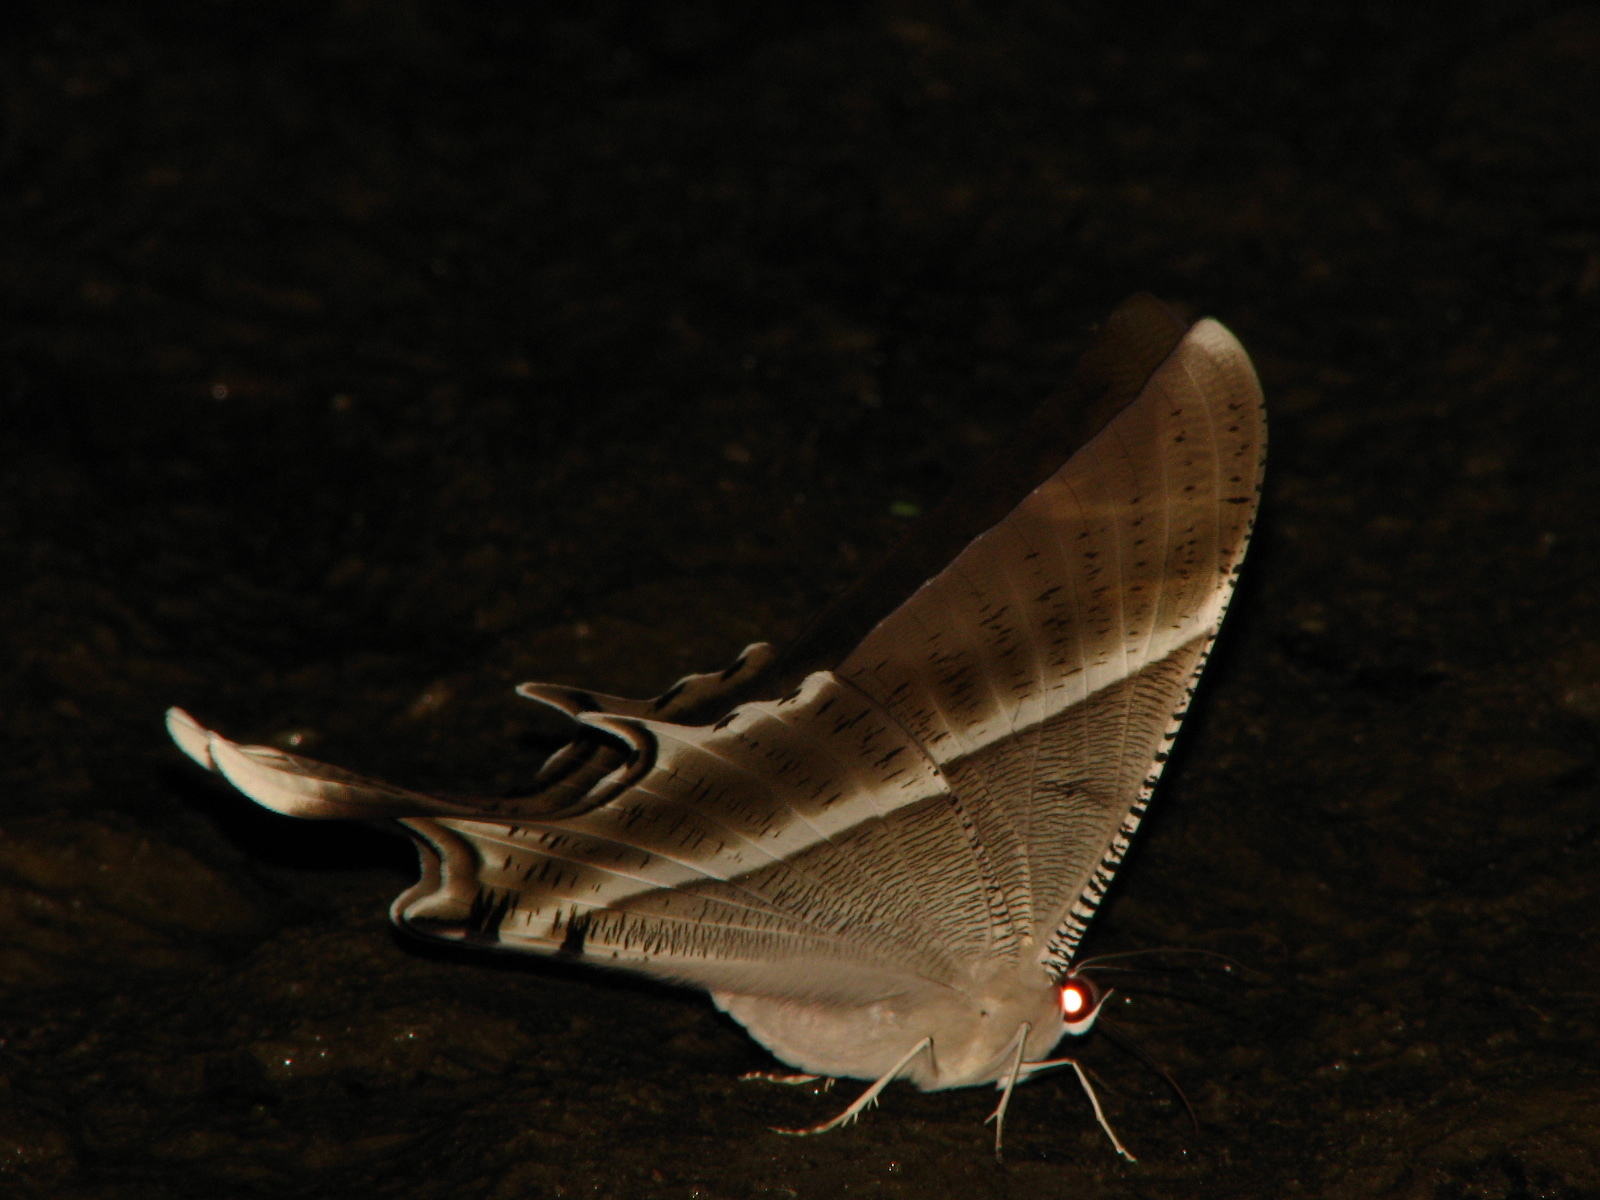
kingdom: Animalia
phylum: Arthropoda
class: Insecta
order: Lepidoptera
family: Uraniidae
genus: Lyssa
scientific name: Lyssa zampa
